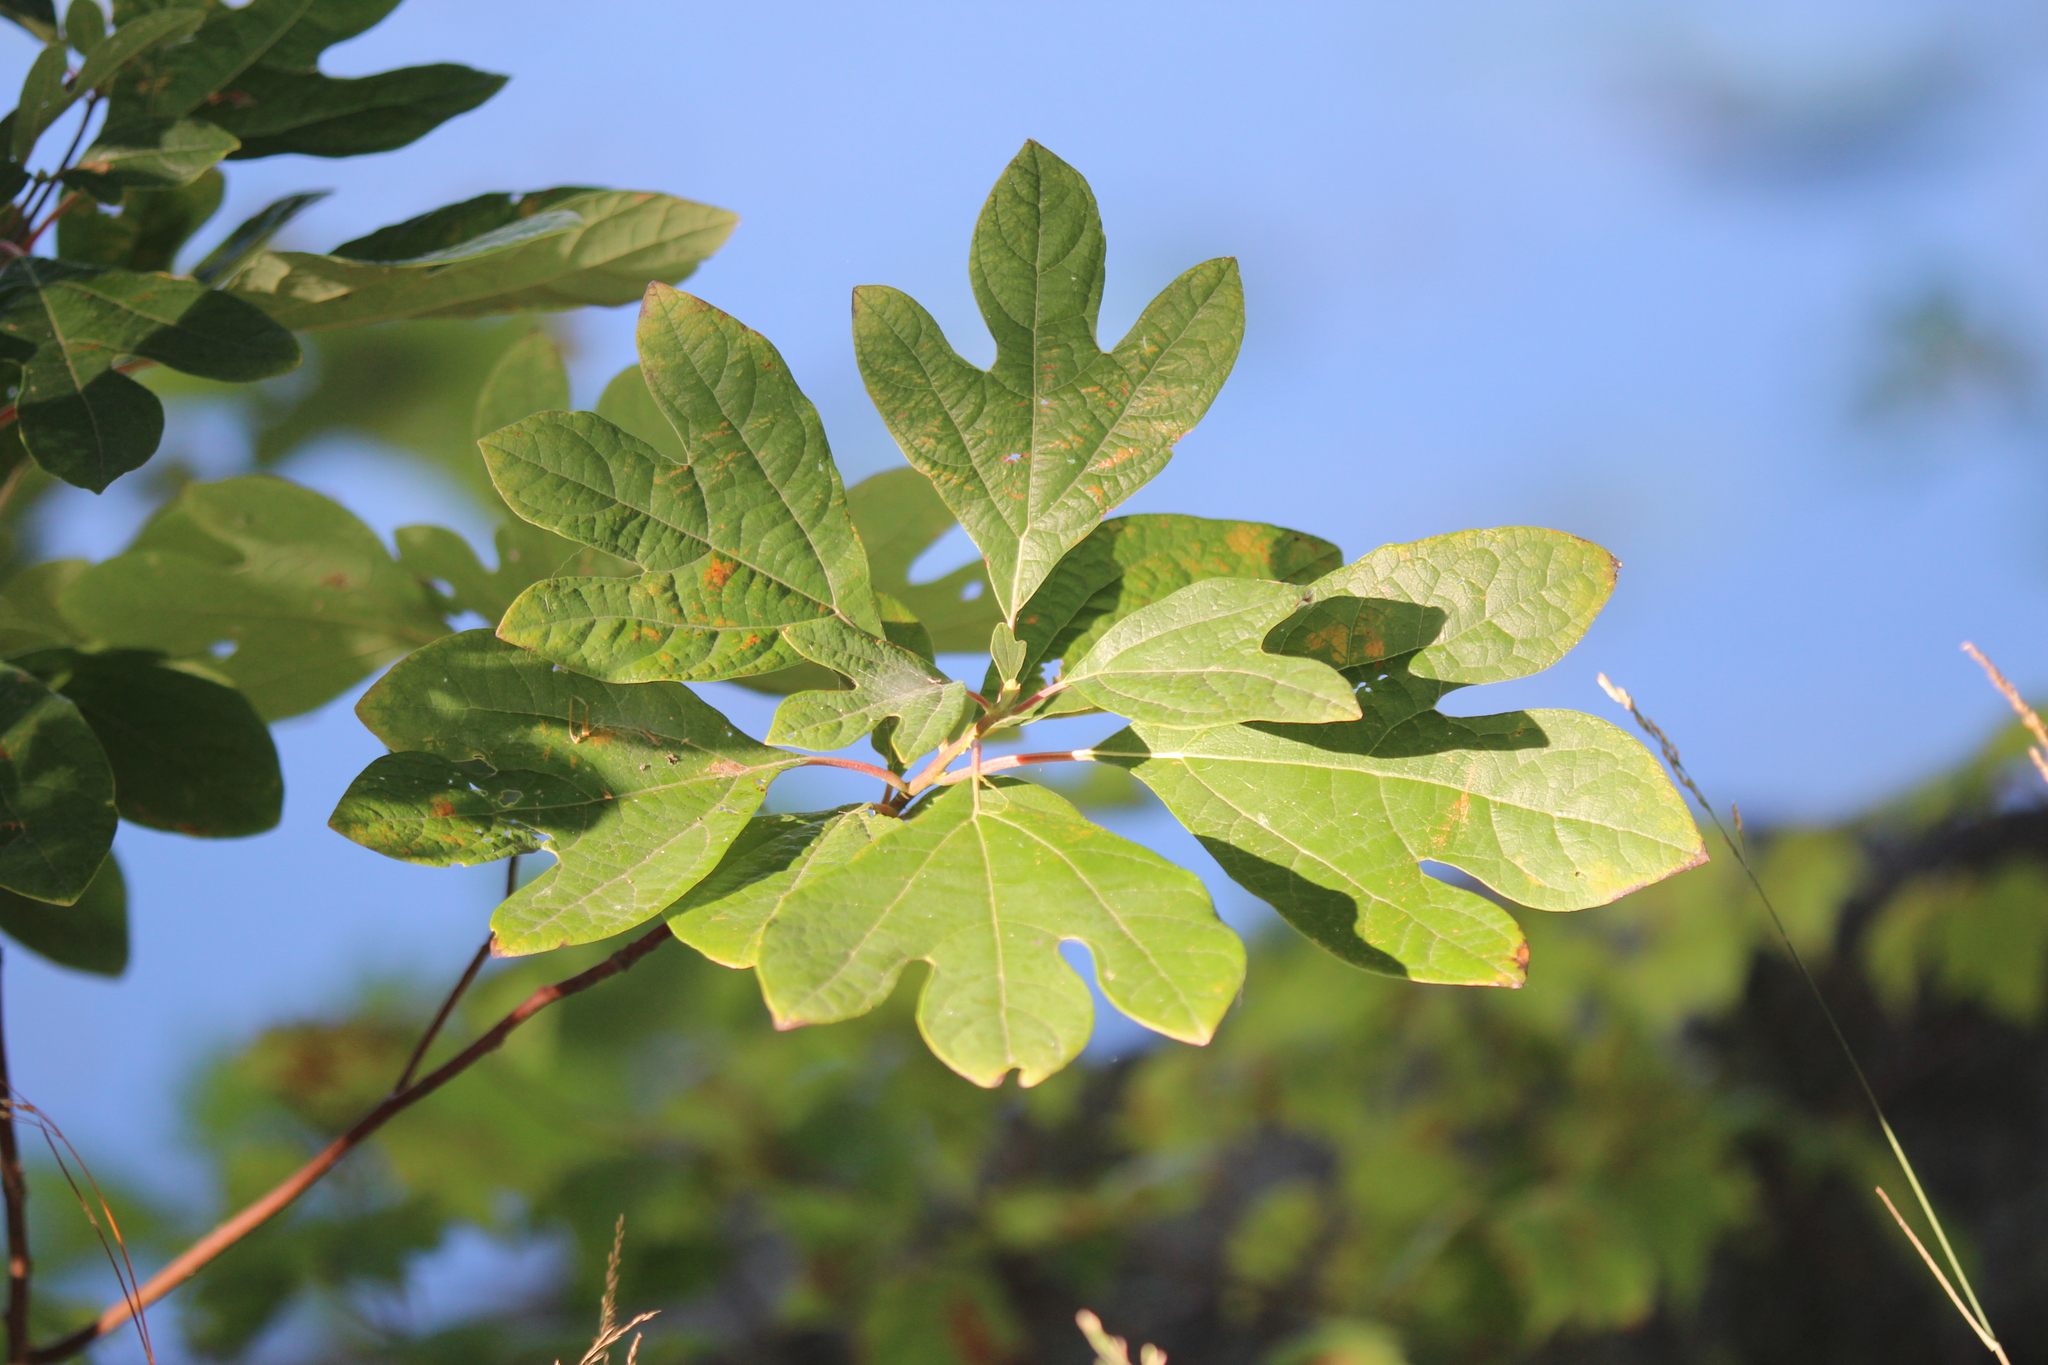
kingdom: Plantae
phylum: Tracheophyta
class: Magnoliopsida
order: Laurales
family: Lauraceae
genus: Sassafras
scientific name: Sassafras albidum
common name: Sassafras
